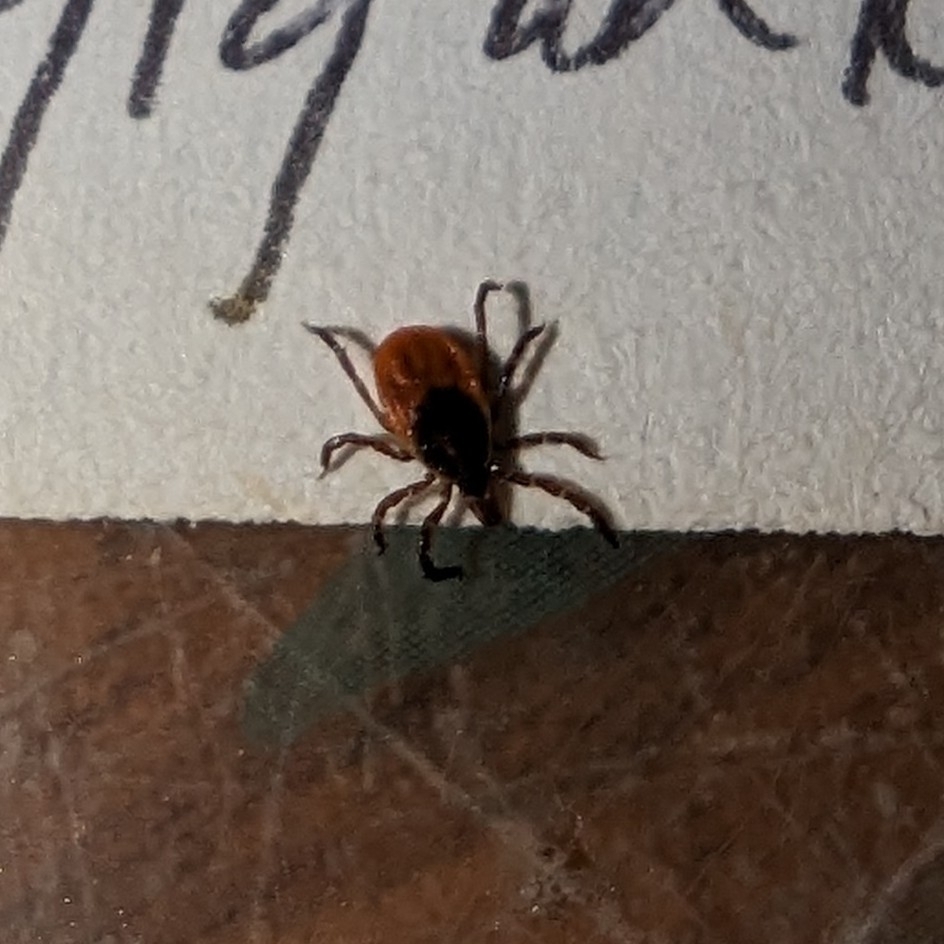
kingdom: Animalia
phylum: Arthropoda
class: Arachnida
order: Ixodida
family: Ixodidae
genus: Ixodes
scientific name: Ixodes scapularis
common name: Black legged tick
